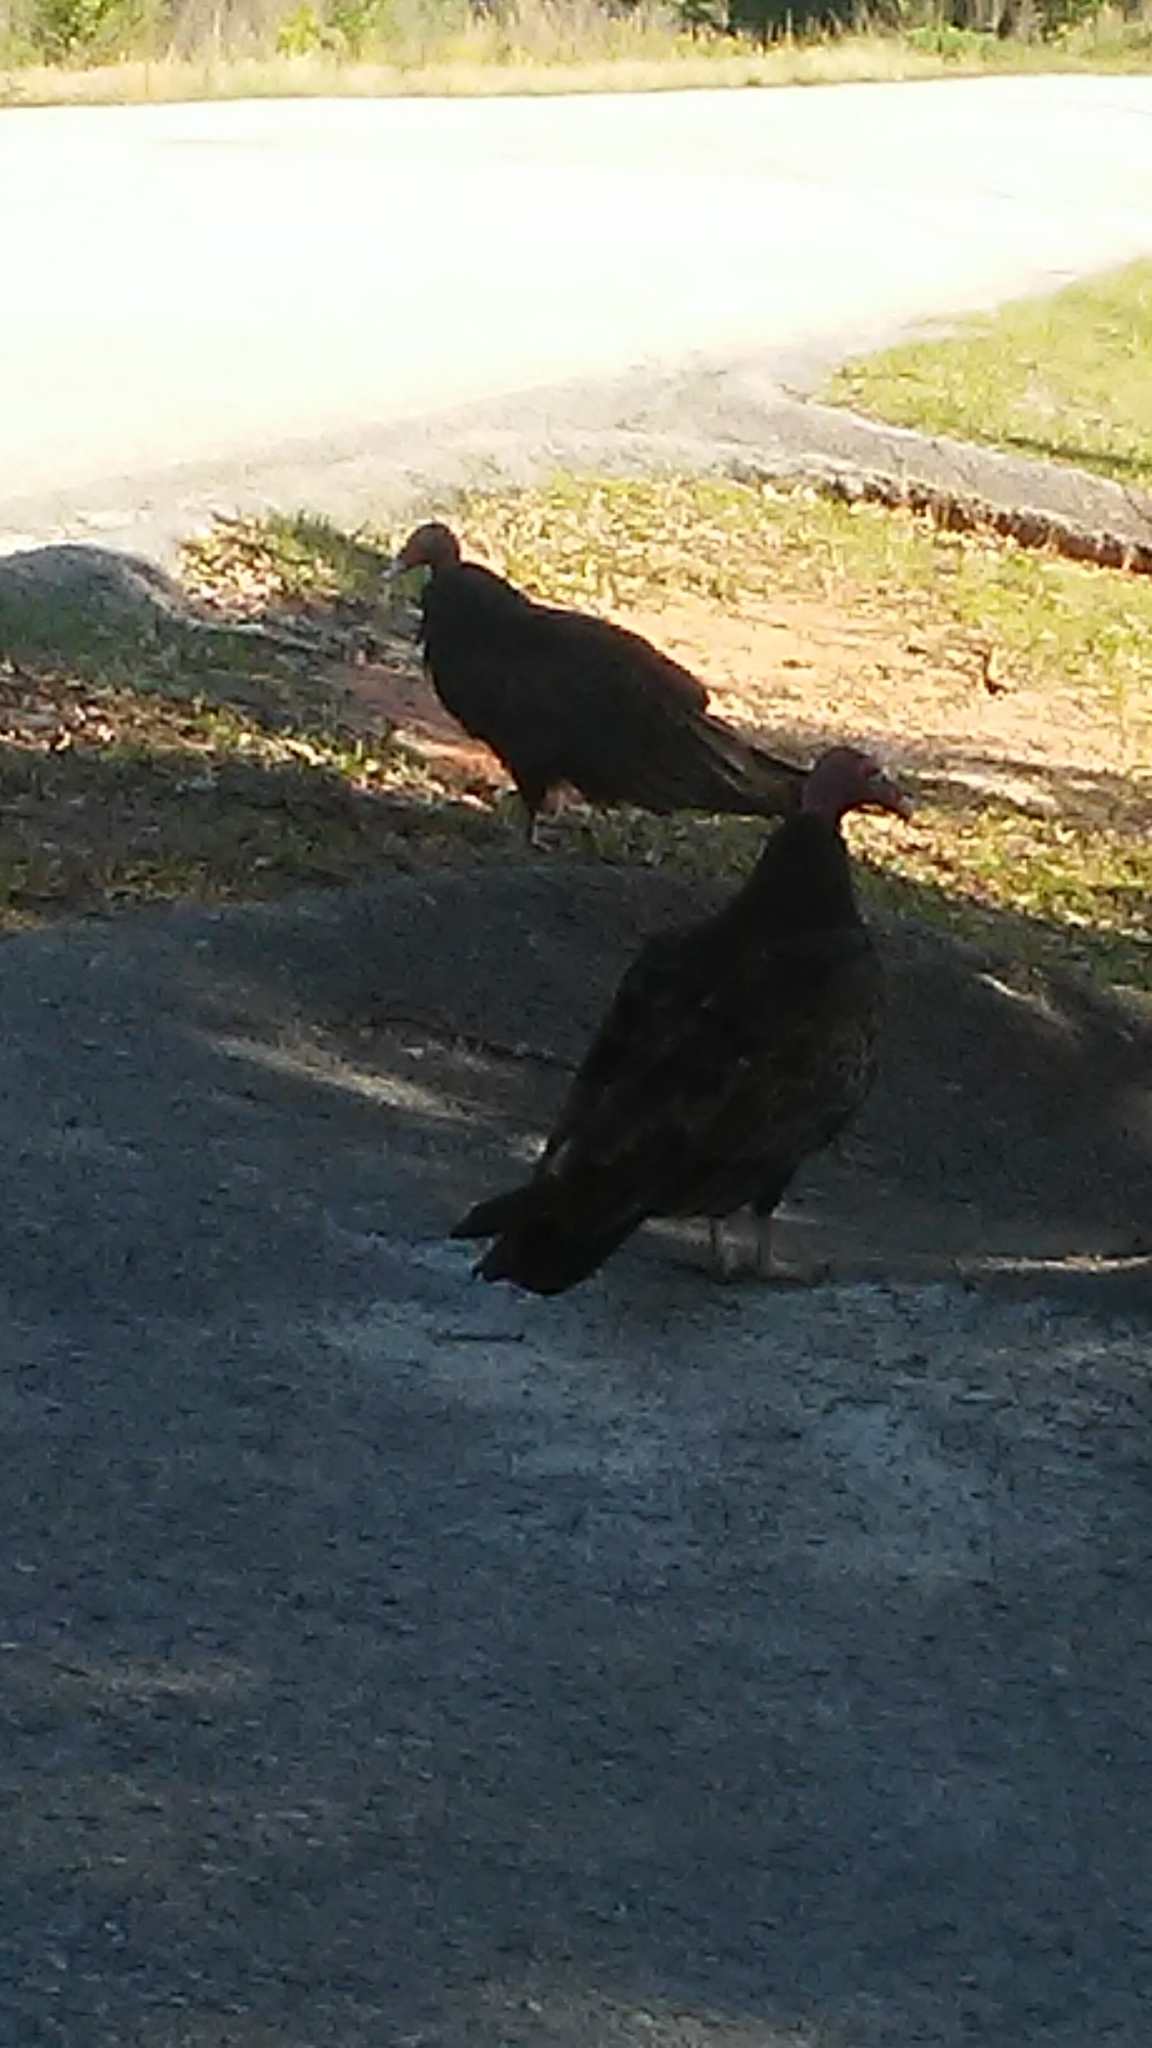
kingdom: Animalia
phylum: Chordata
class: Aves
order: Accipitriformes
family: Cathartidae
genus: Cathartes
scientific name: Cathartes aura
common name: Turkey vulture
